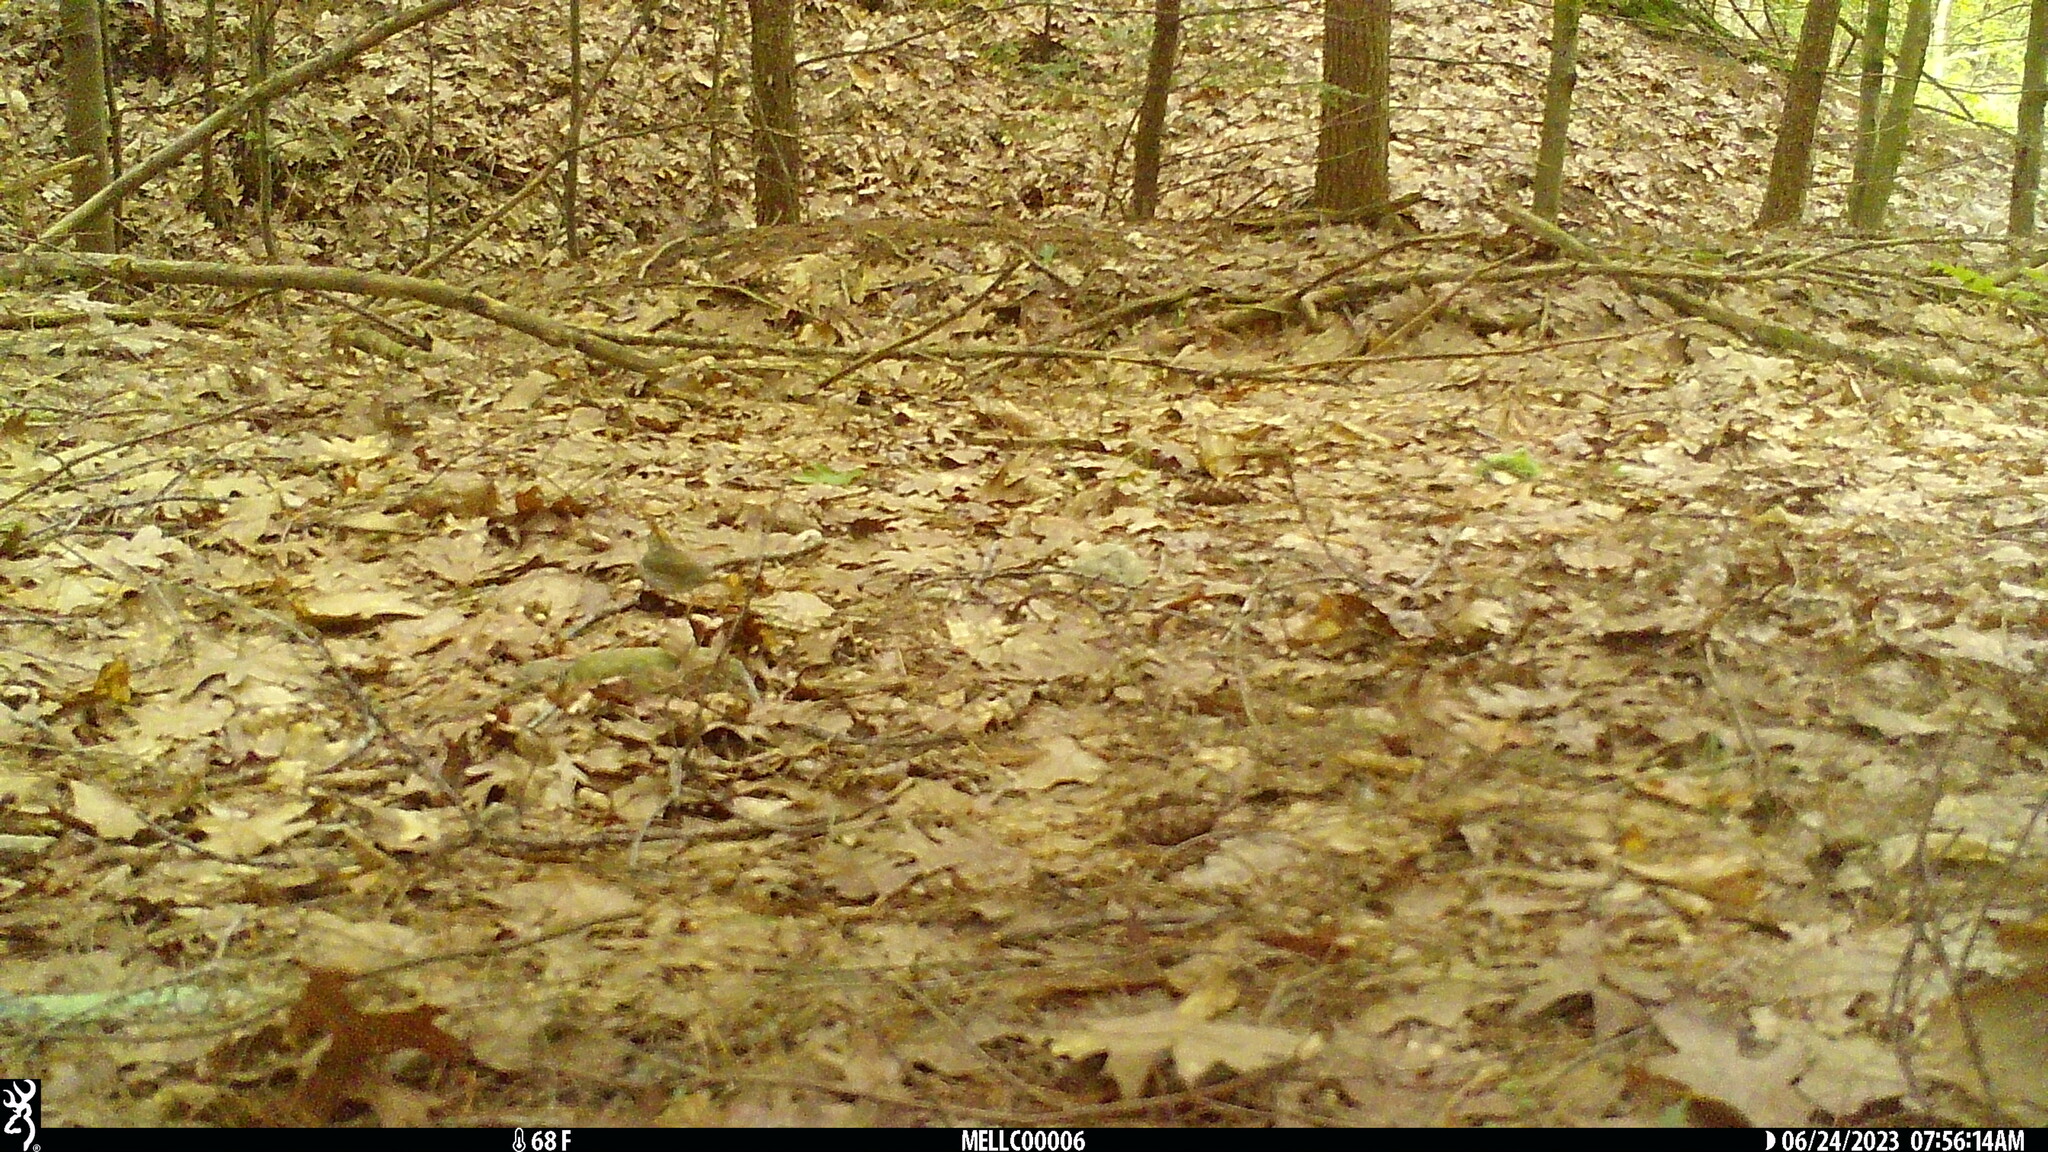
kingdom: Animalia
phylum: Chordata
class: Aves
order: Passeriformes
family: Parulidae
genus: Seiurus
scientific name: Seiurus aurocapilla
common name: Ovenbird
